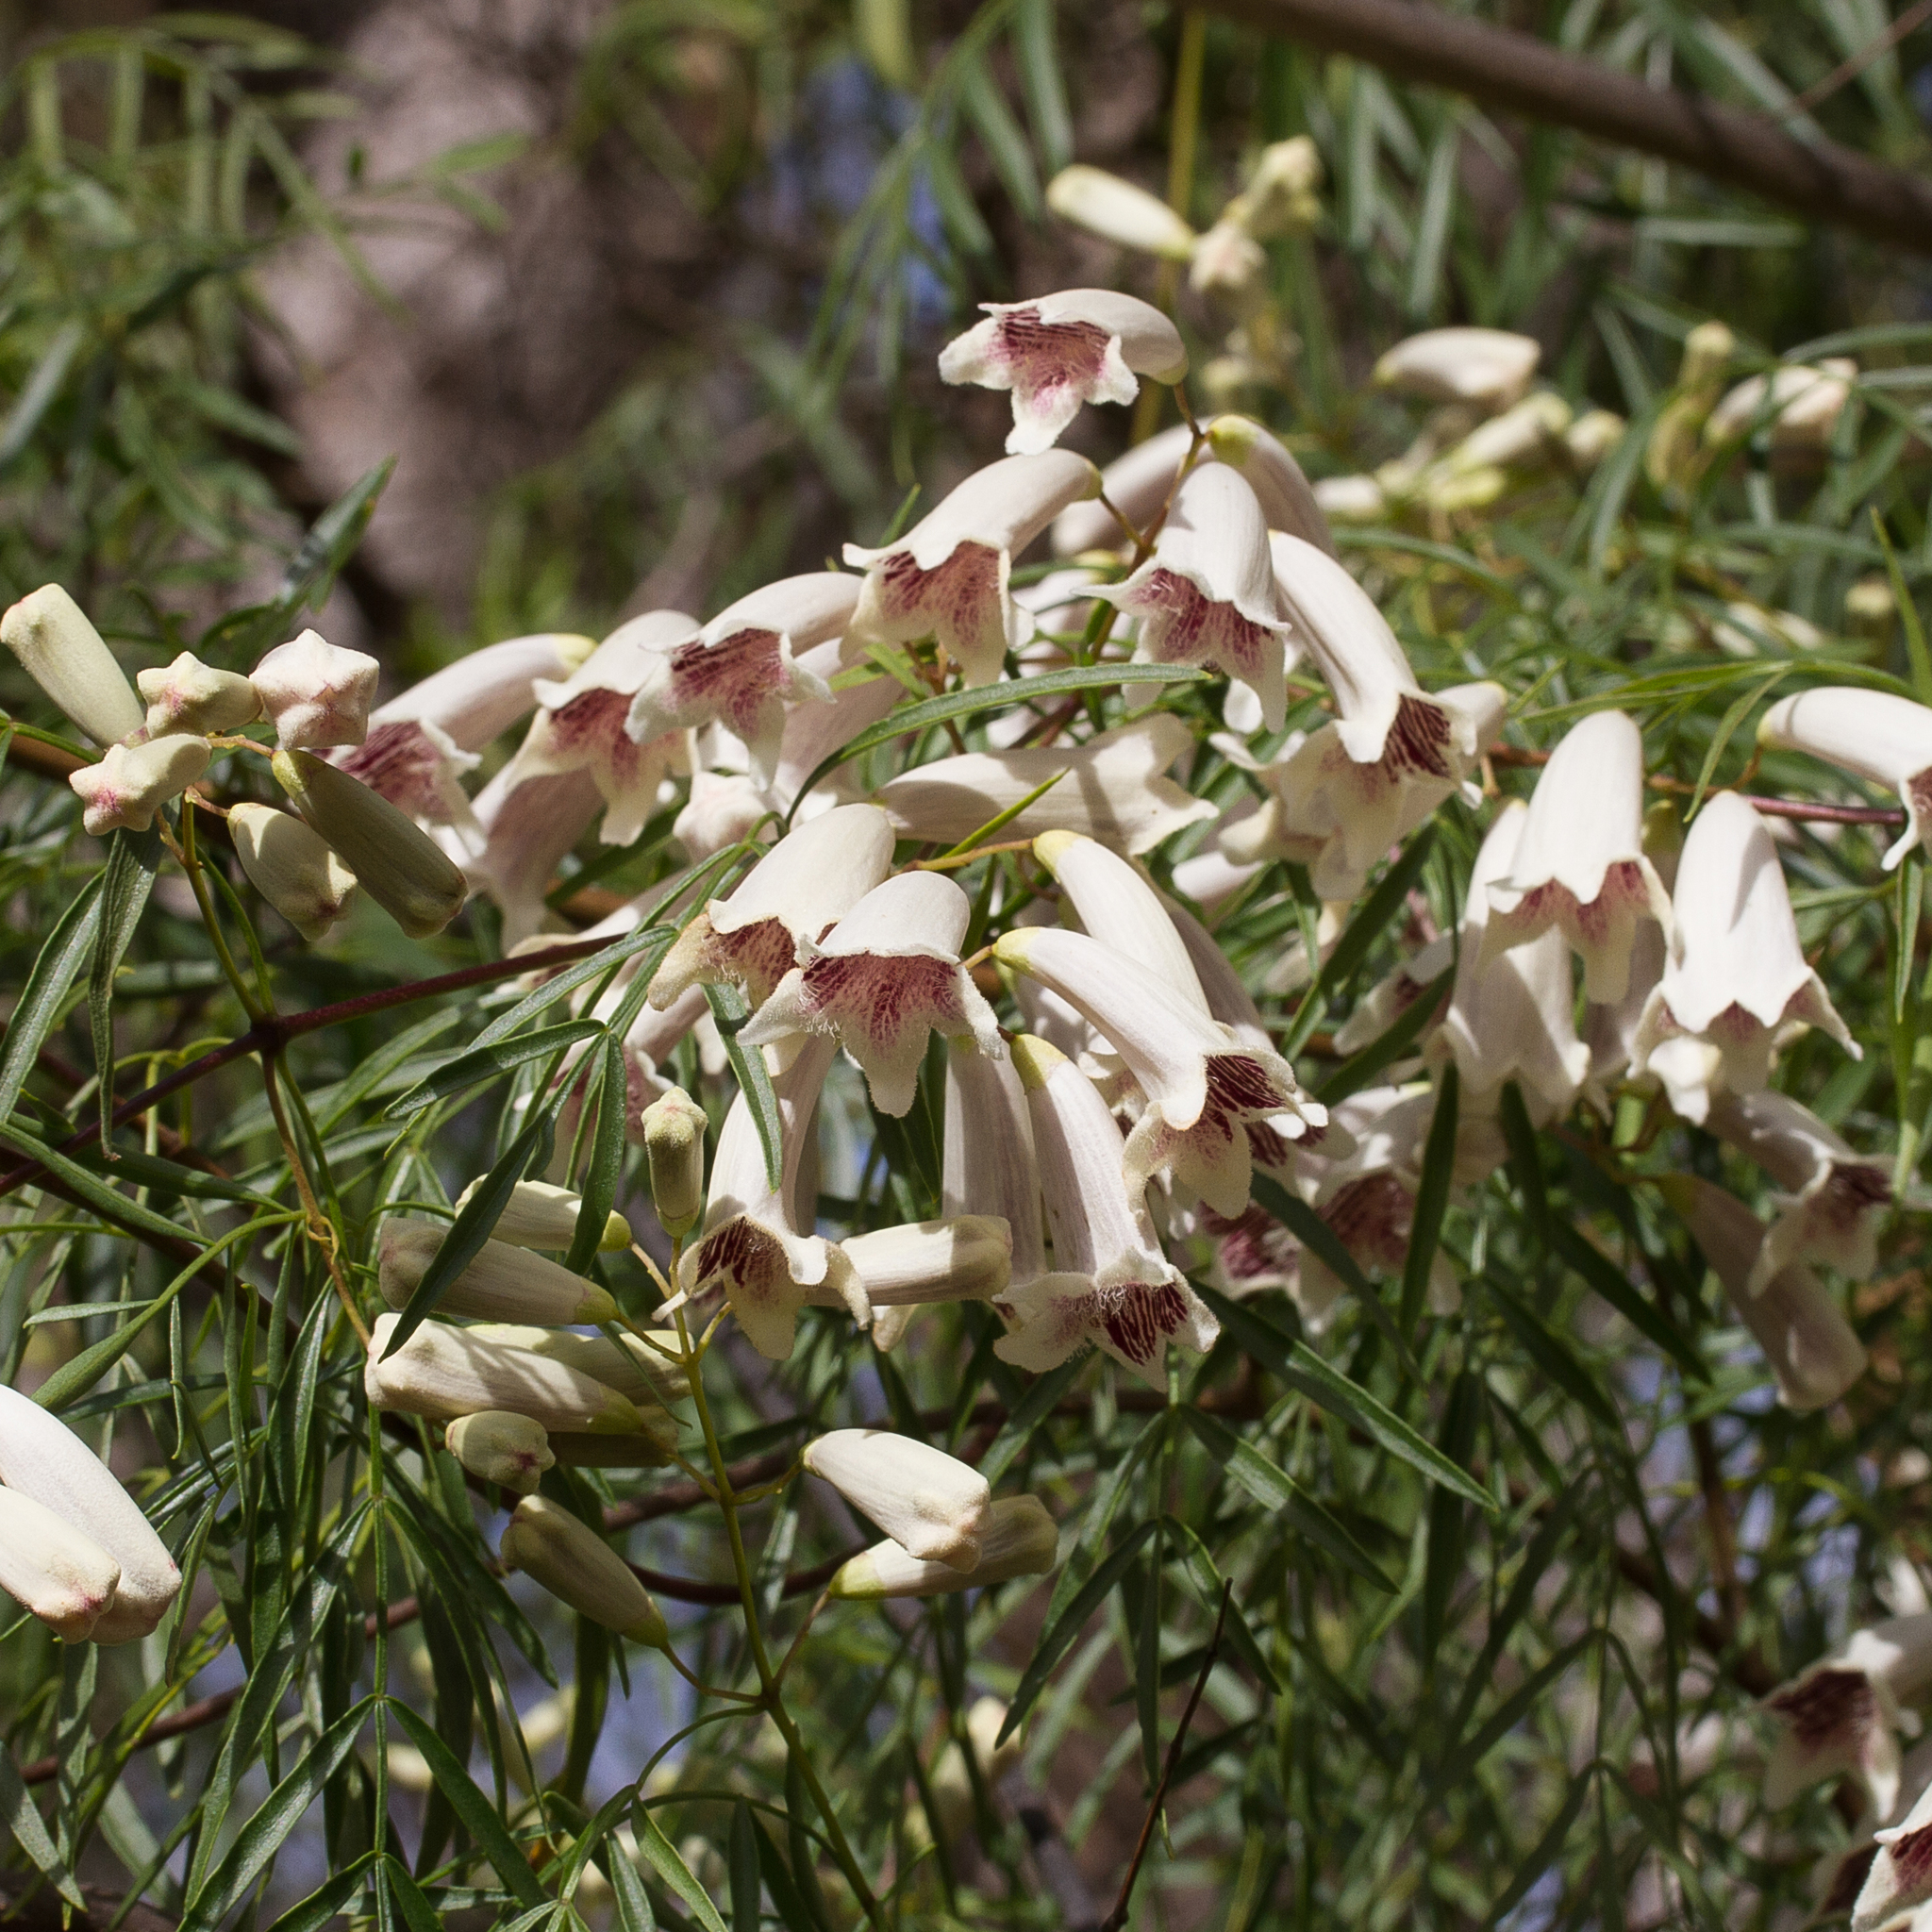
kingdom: Plantae
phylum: Tracheophyta
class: Magnoliopsida
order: Lamiales
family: Bignoniaceae
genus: Pandorea
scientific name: Pandorea pandorana
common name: Wonga-wonga-vine
